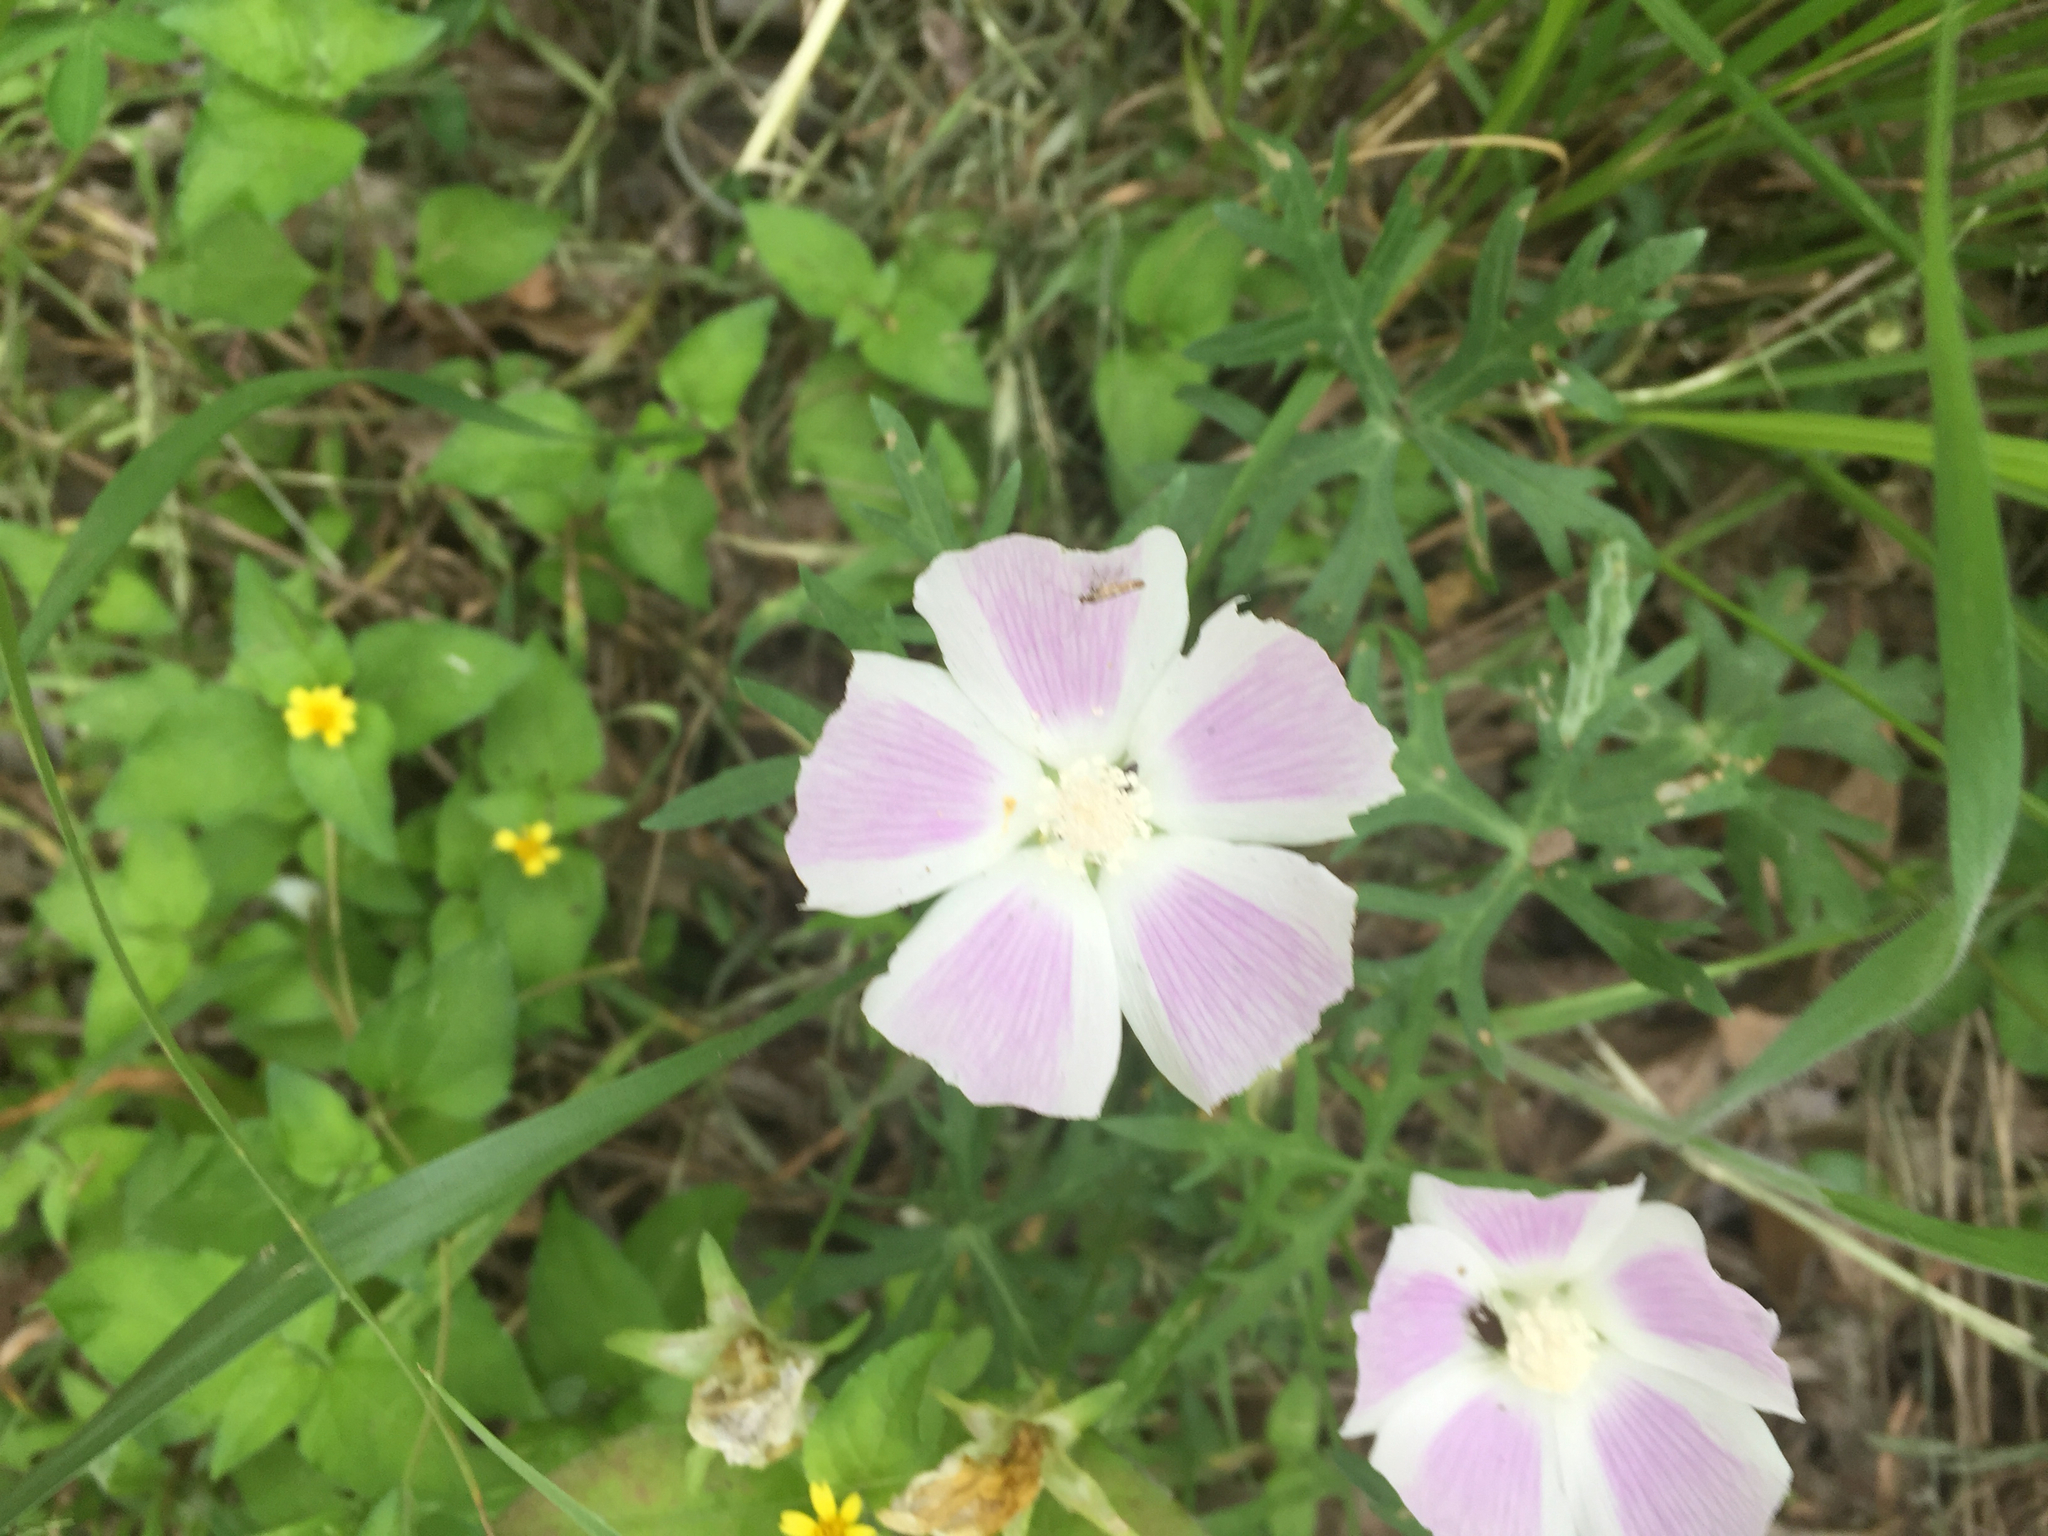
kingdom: Plantae
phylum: Tracheophyta
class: Magnoliopsida
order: Malvales
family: Malvaceae
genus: Callirhoe
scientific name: Callirhoe involucrata
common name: Purple poppy-mallow
